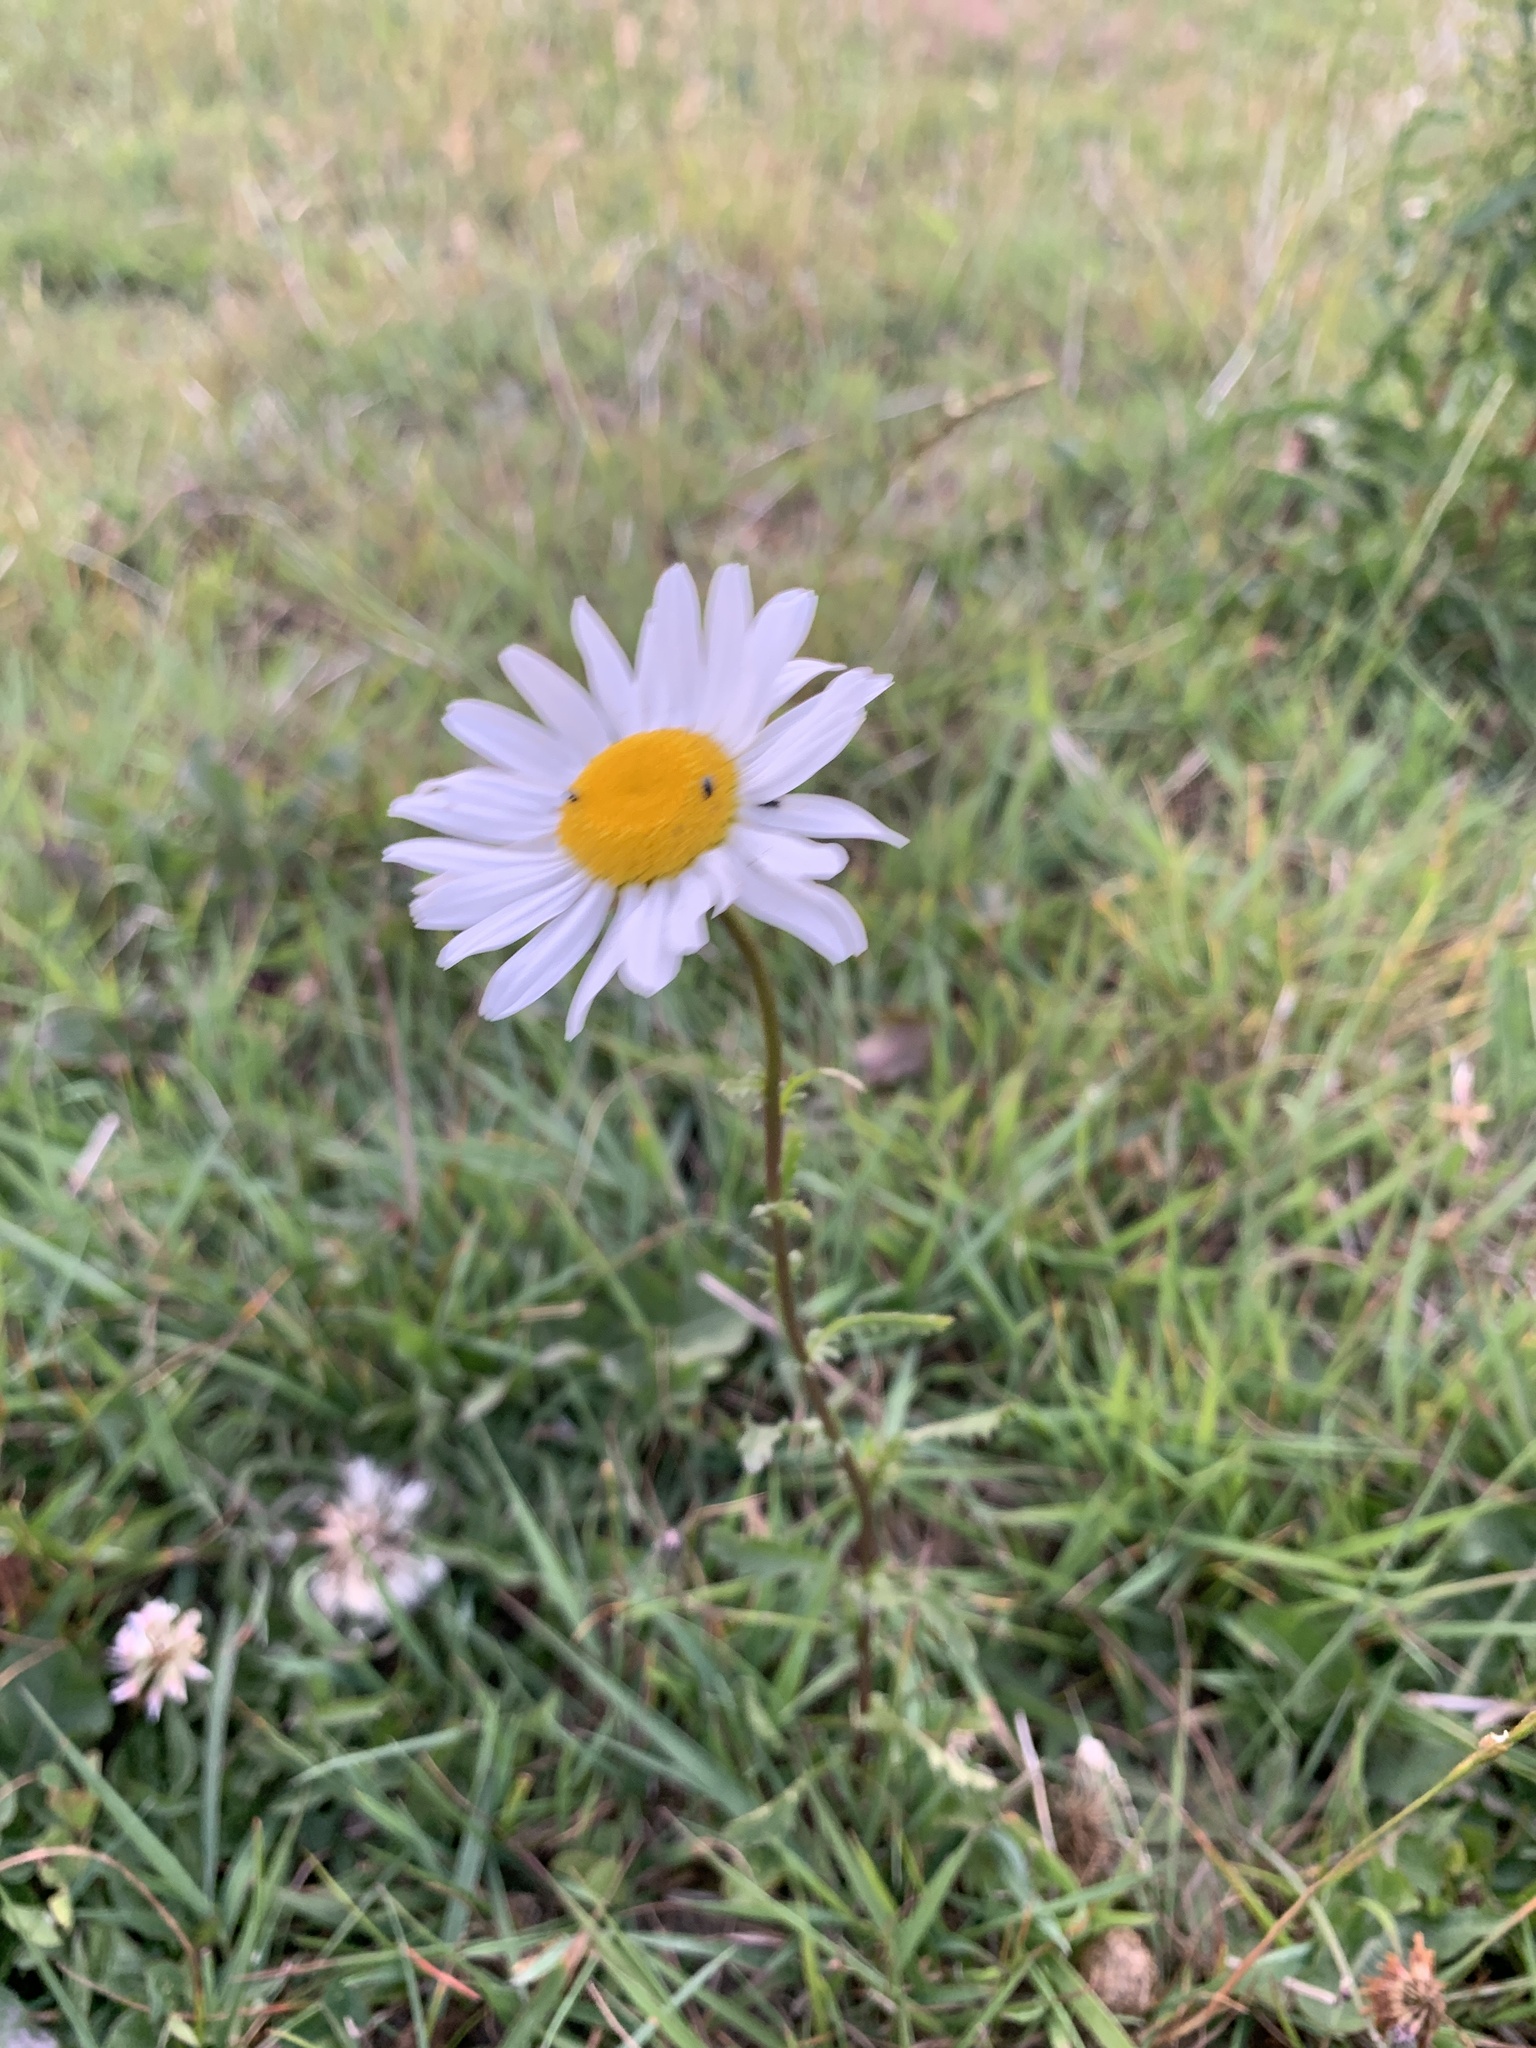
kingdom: Plantae
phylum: Tracheophyta
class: Magnoliopsida
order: Asterales
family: Asteraceae
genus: Leucanthemum
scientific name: Leucanthemum vulgare
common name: Oxeye daisy
